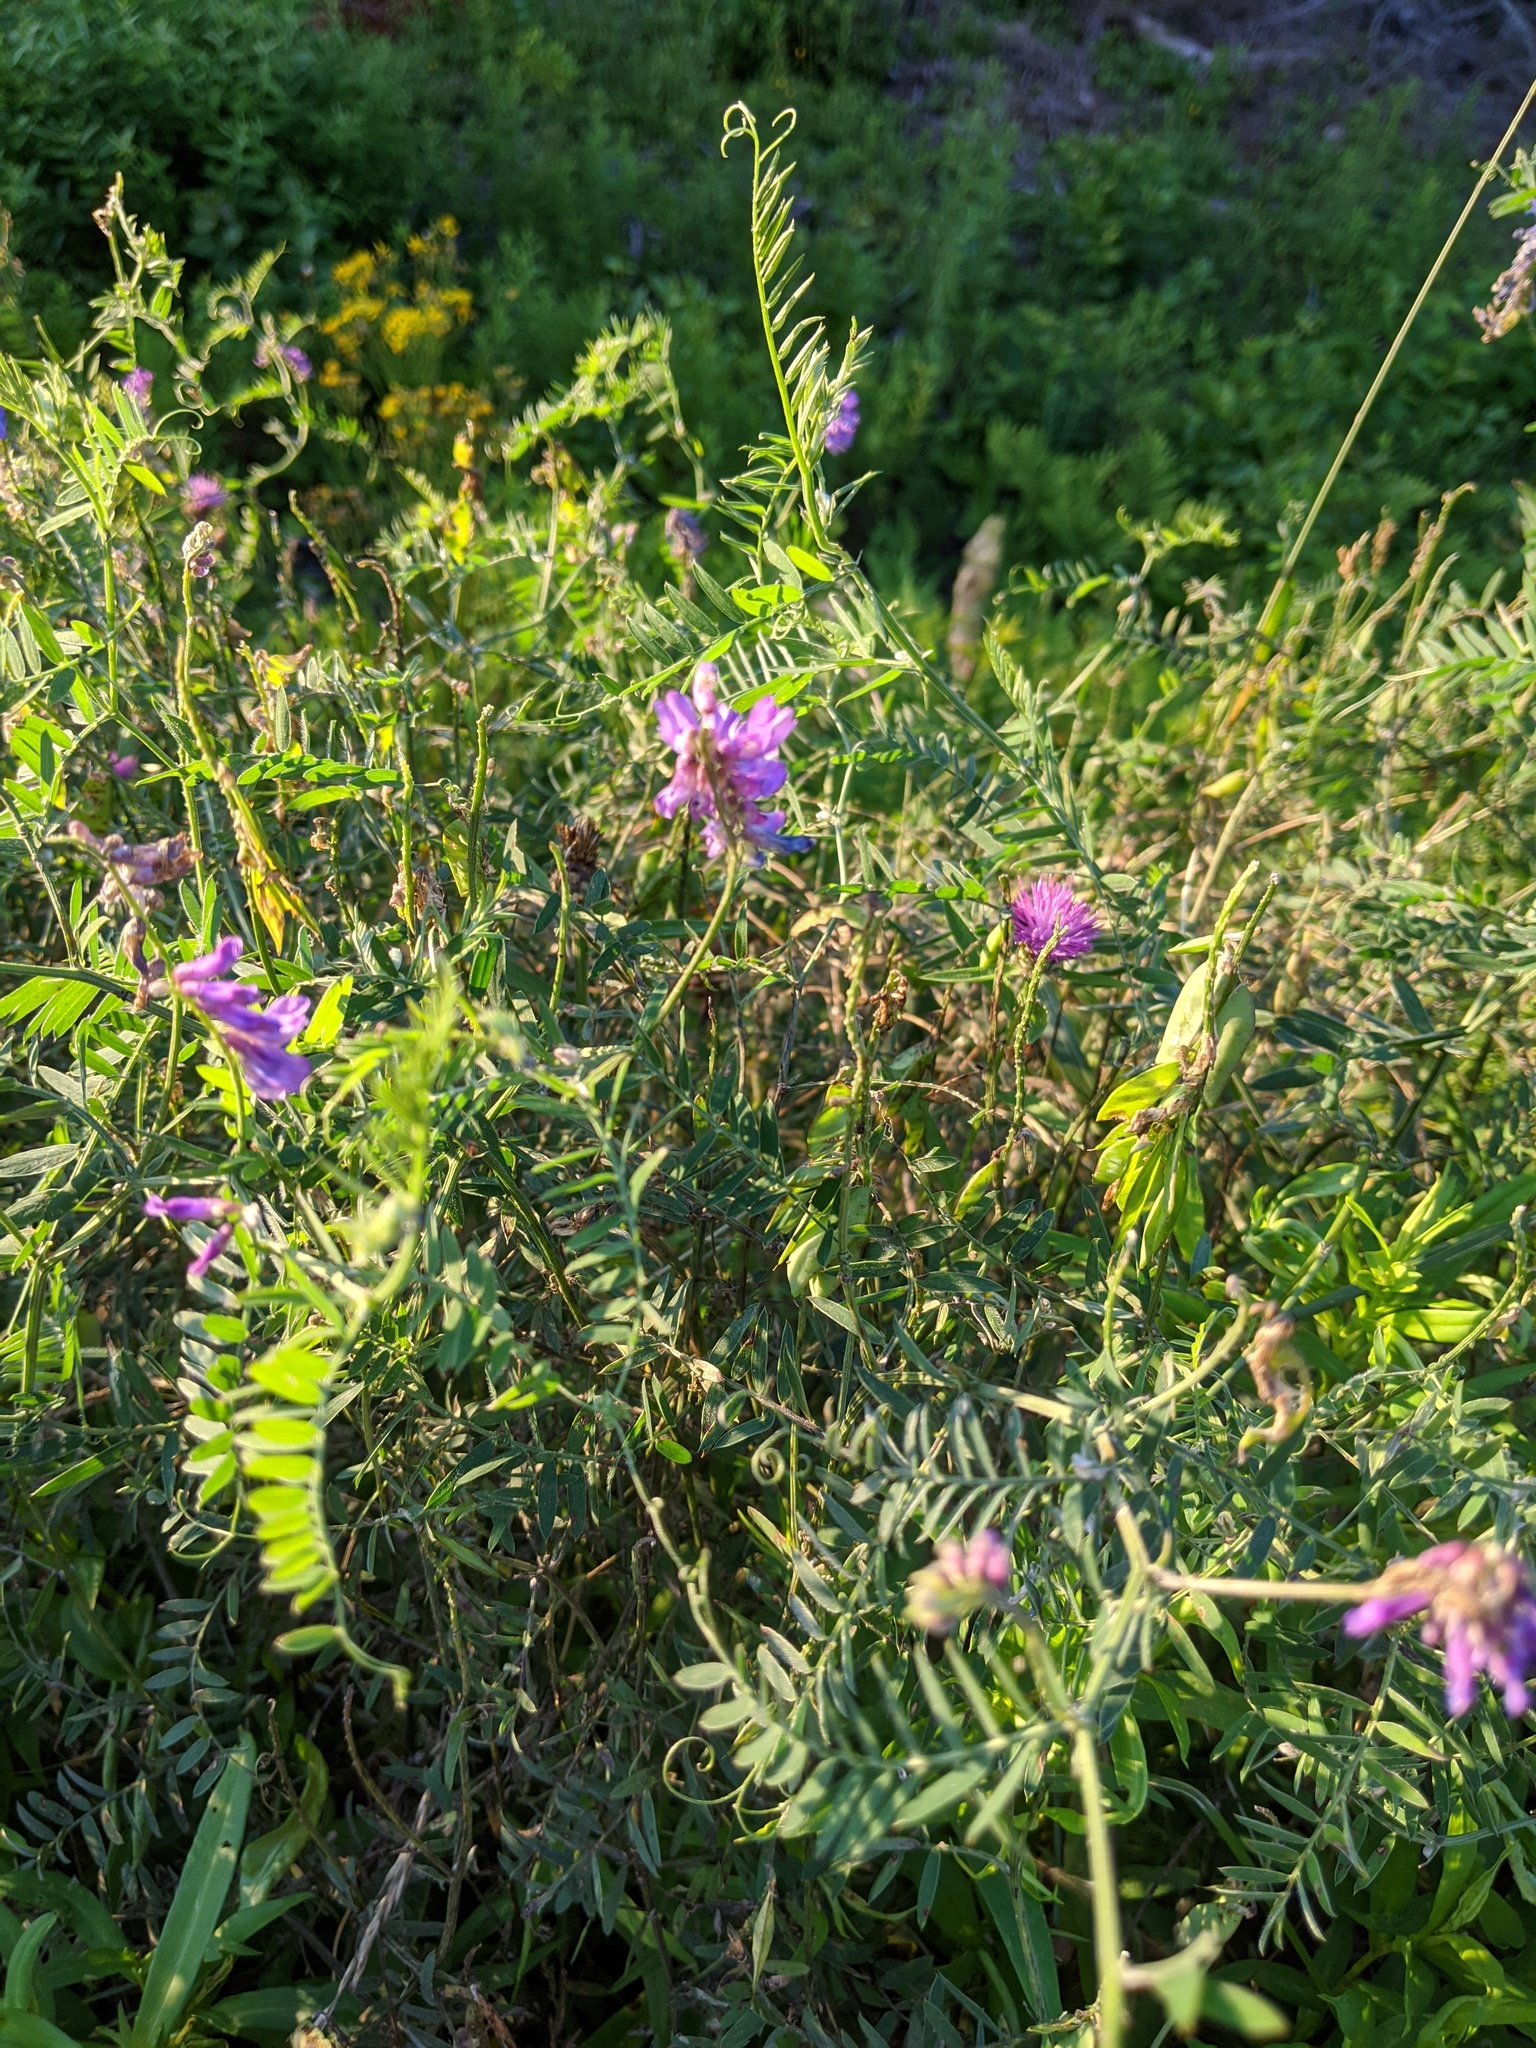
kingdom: Plantae
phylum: Tracheophyta
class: Magnoliopsida
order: Fabales
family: Fabaceae
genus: Vicia
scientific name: Vicia cracca
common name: Bird vetch
